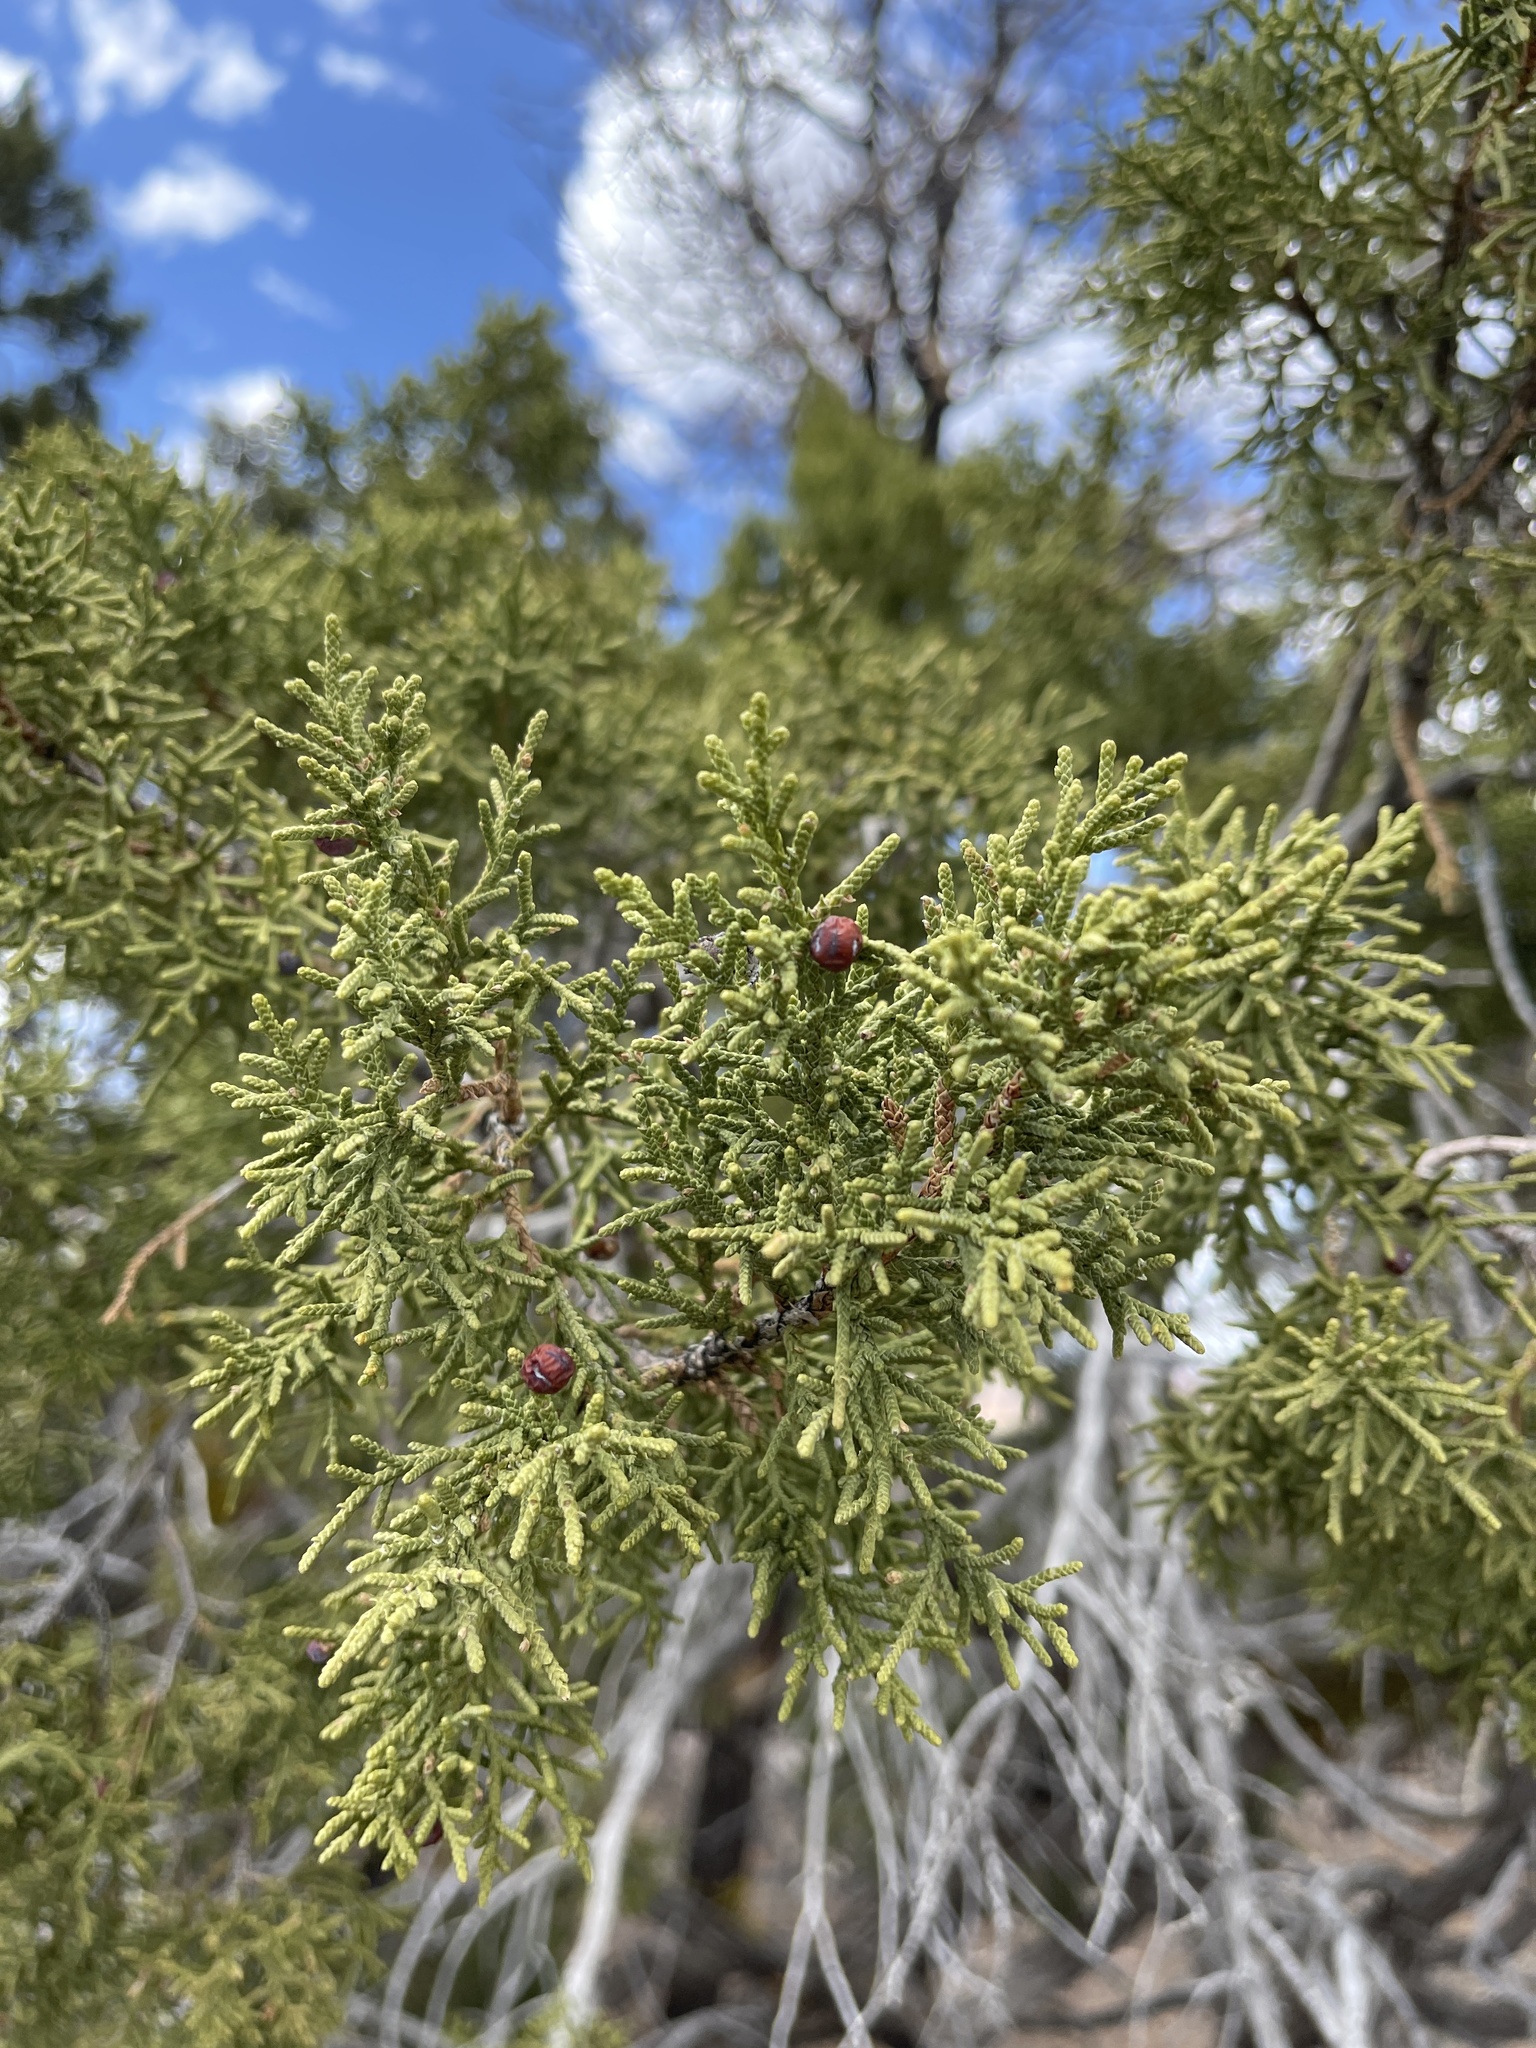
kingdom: Plantae
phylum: Tracheophyta
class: Pinopsida
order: Pinales
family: Cupressaceae
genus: Juniperus
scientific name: Juniperus monosperma
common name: One-seed juniper
